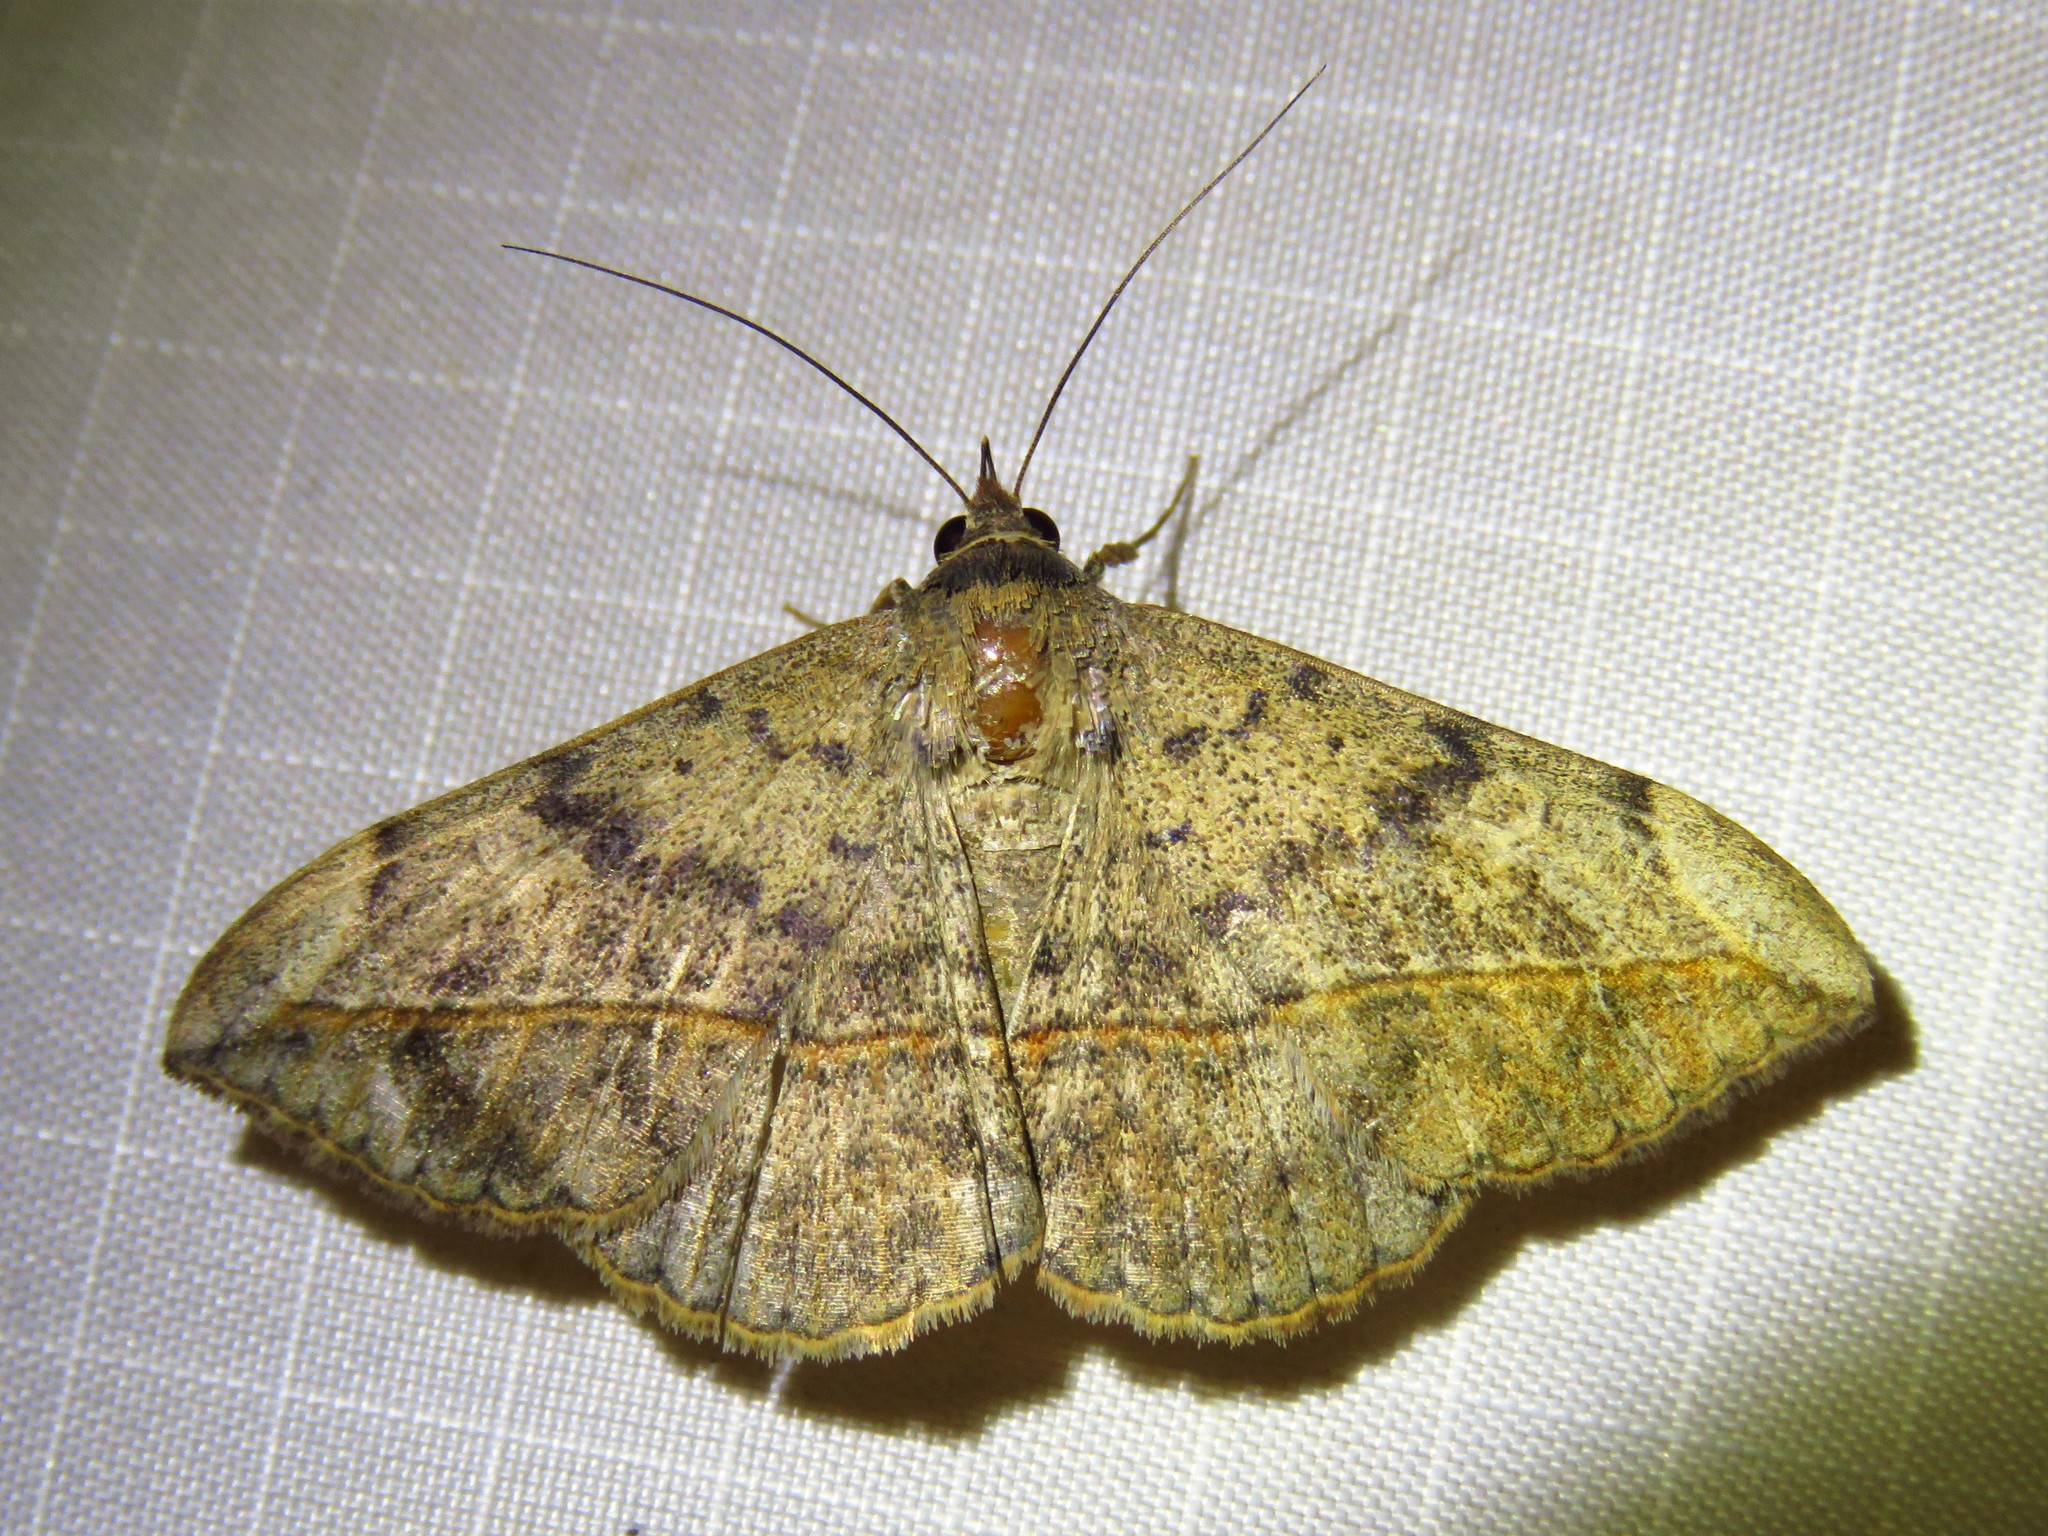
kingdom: Animalia
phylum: Arthropoda
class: Insecta
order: Lepidoptera
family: Erebidae
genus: Anticarsia
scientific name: Anticarsia gemmatalis
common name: Cutworm moth
